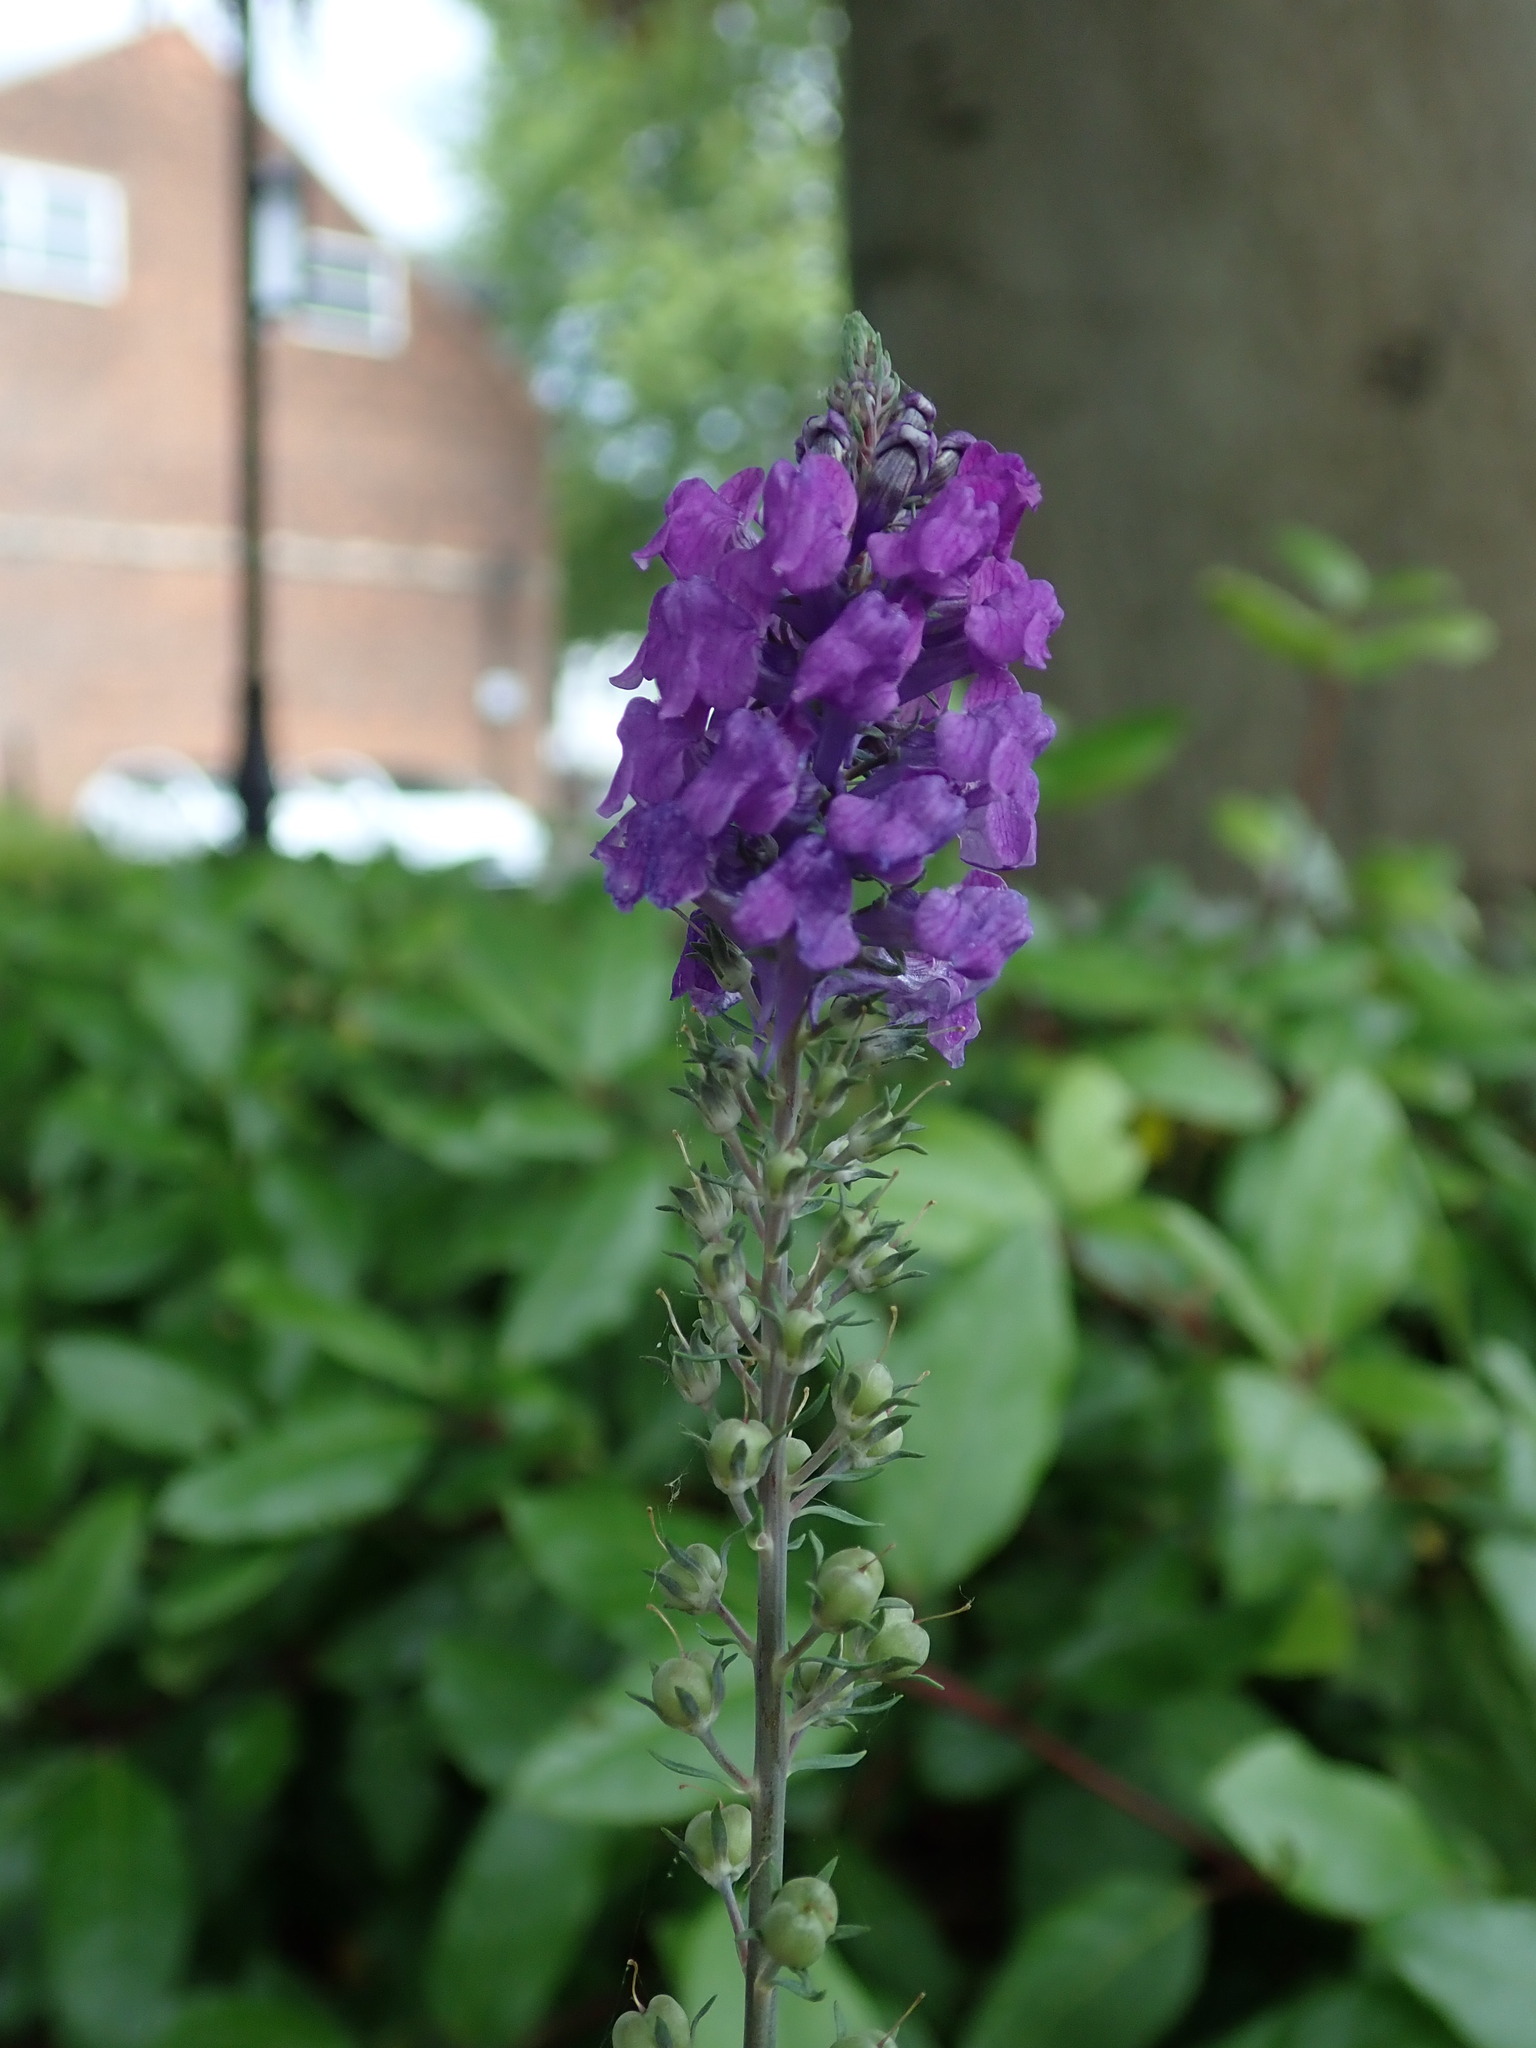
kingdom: Plantae
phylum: Tracheophyta
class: Magnoliopsida
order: Lamiales
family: Plantaginaceae
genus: Linaria
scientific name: Linaria purpurea
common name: Purple toadflax
